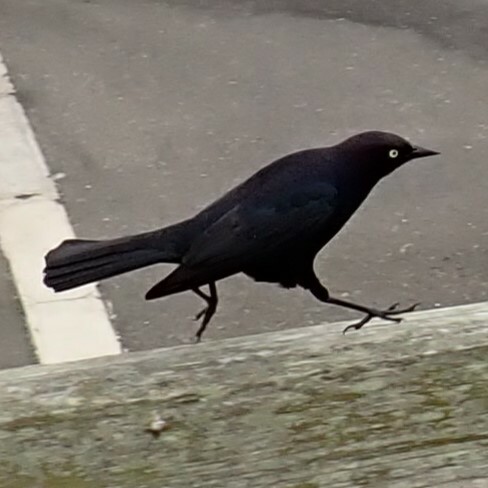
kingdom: Animalia
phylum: Chordata
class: Aves
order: Passeriformes
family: Icteridae
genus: Euphagus
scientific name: Euphagus cyanocephalus
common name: Brewer's blackbird
